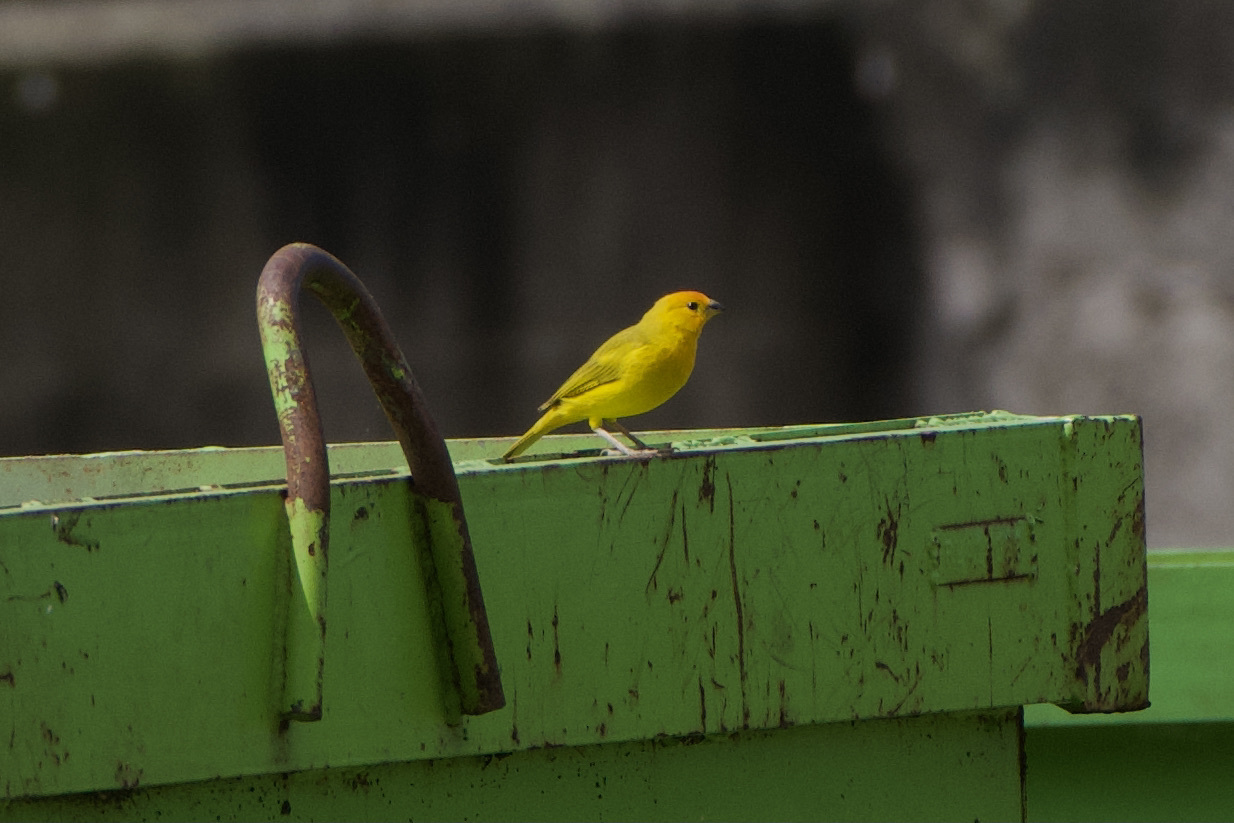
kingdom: Animalia
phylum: Chordata
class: Aves
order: Passeriformes
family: Thraupidae
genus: Sicalis
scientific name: Sicalis flaveola
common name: Saffron finch
